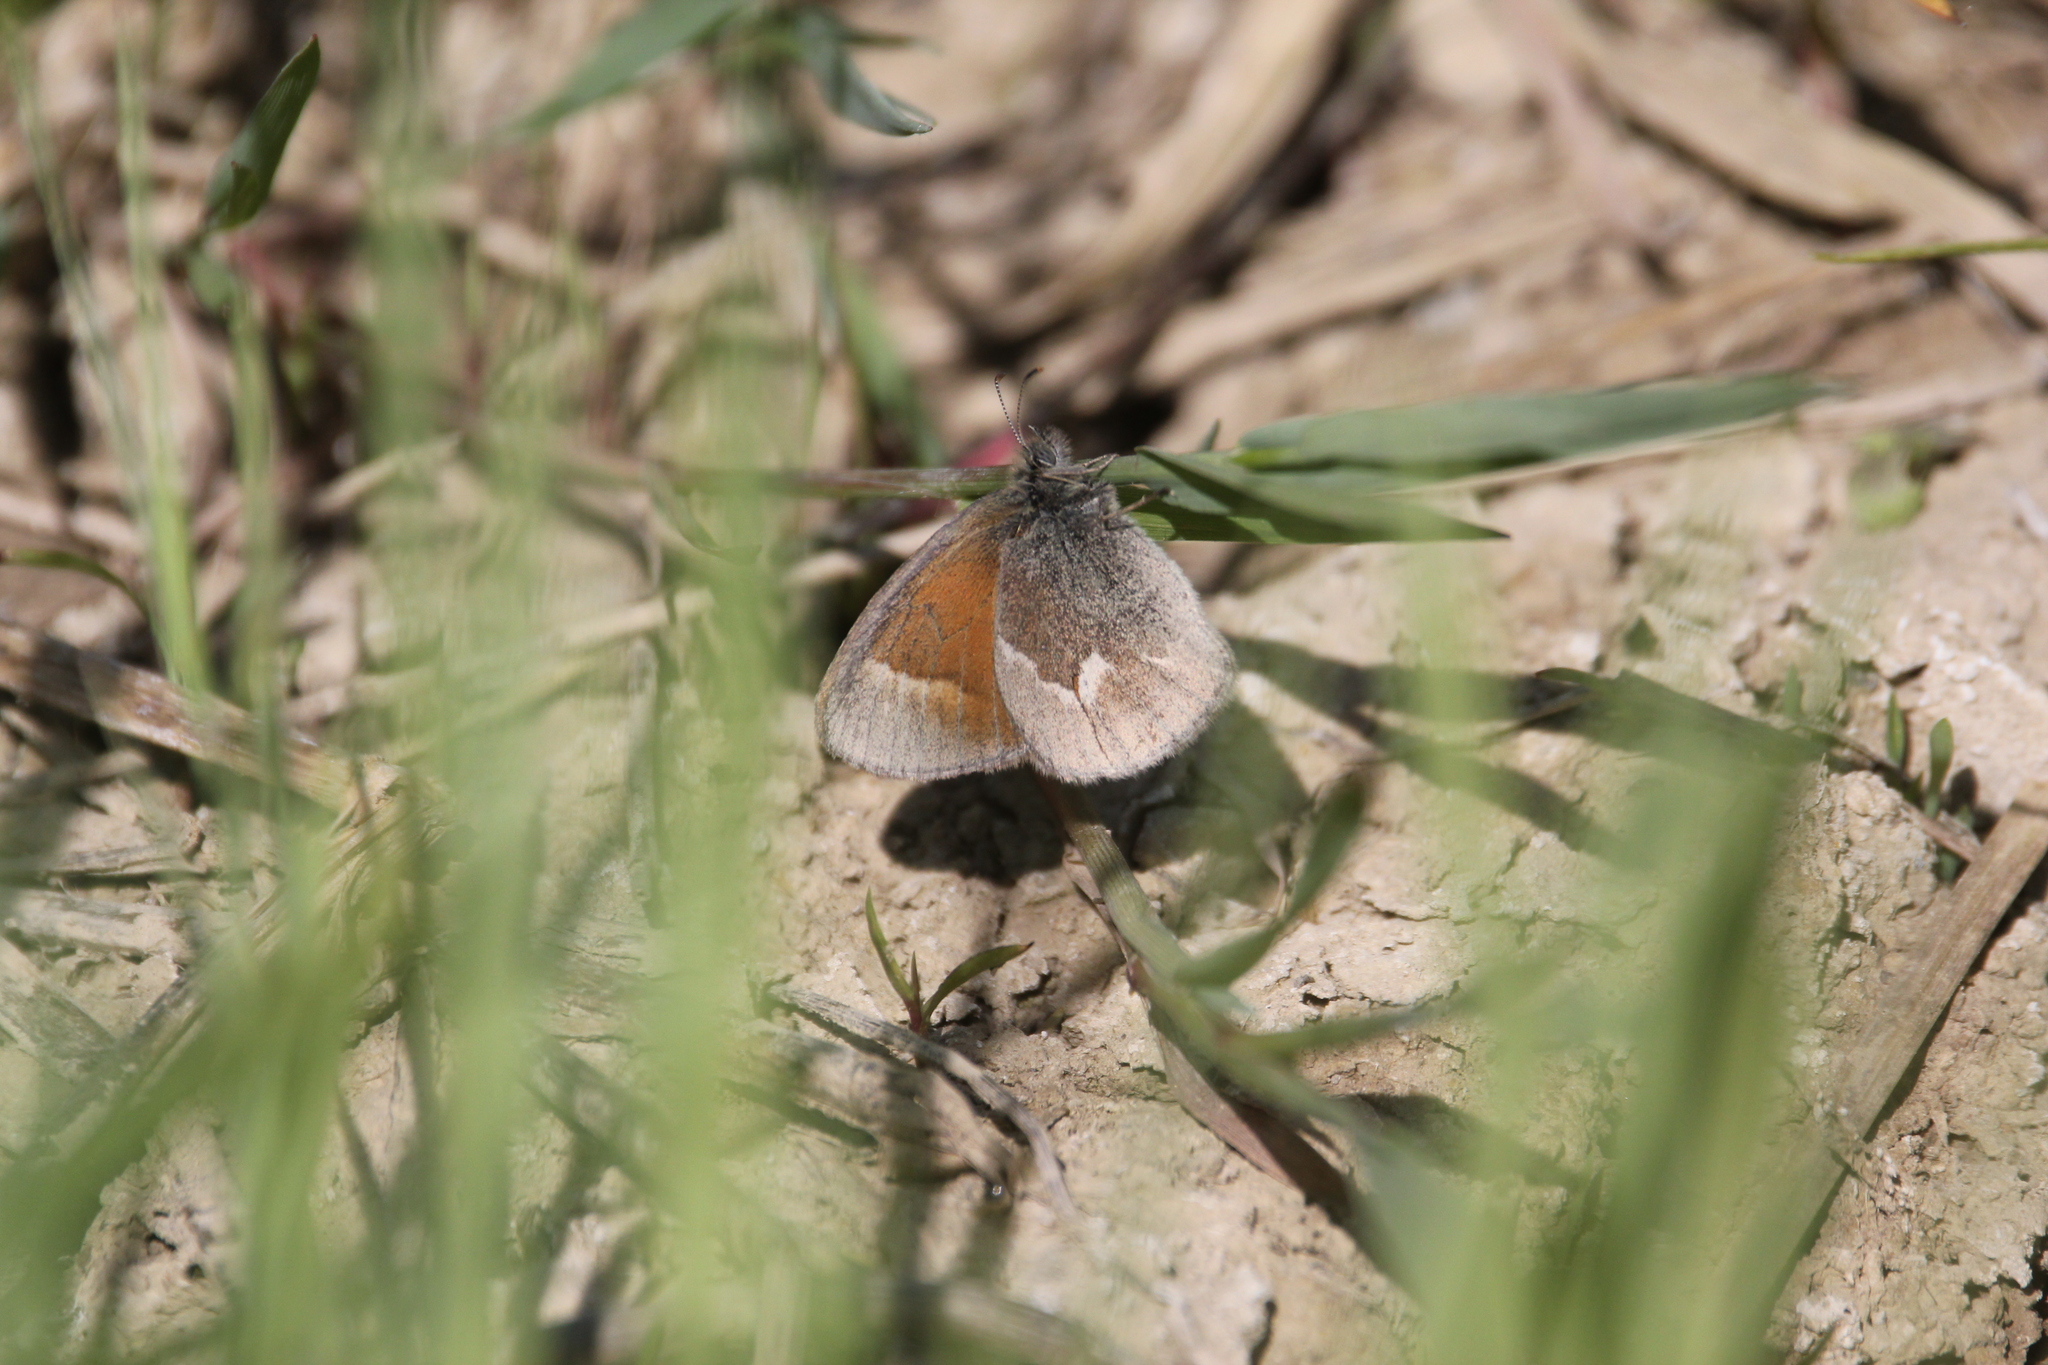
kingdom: Animalia
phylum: Arthropoda
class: Insecta
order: Lepidoptera
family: Nymphalidae
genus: Coenonympha
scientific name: Coenonympha california
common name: Common ringlet
